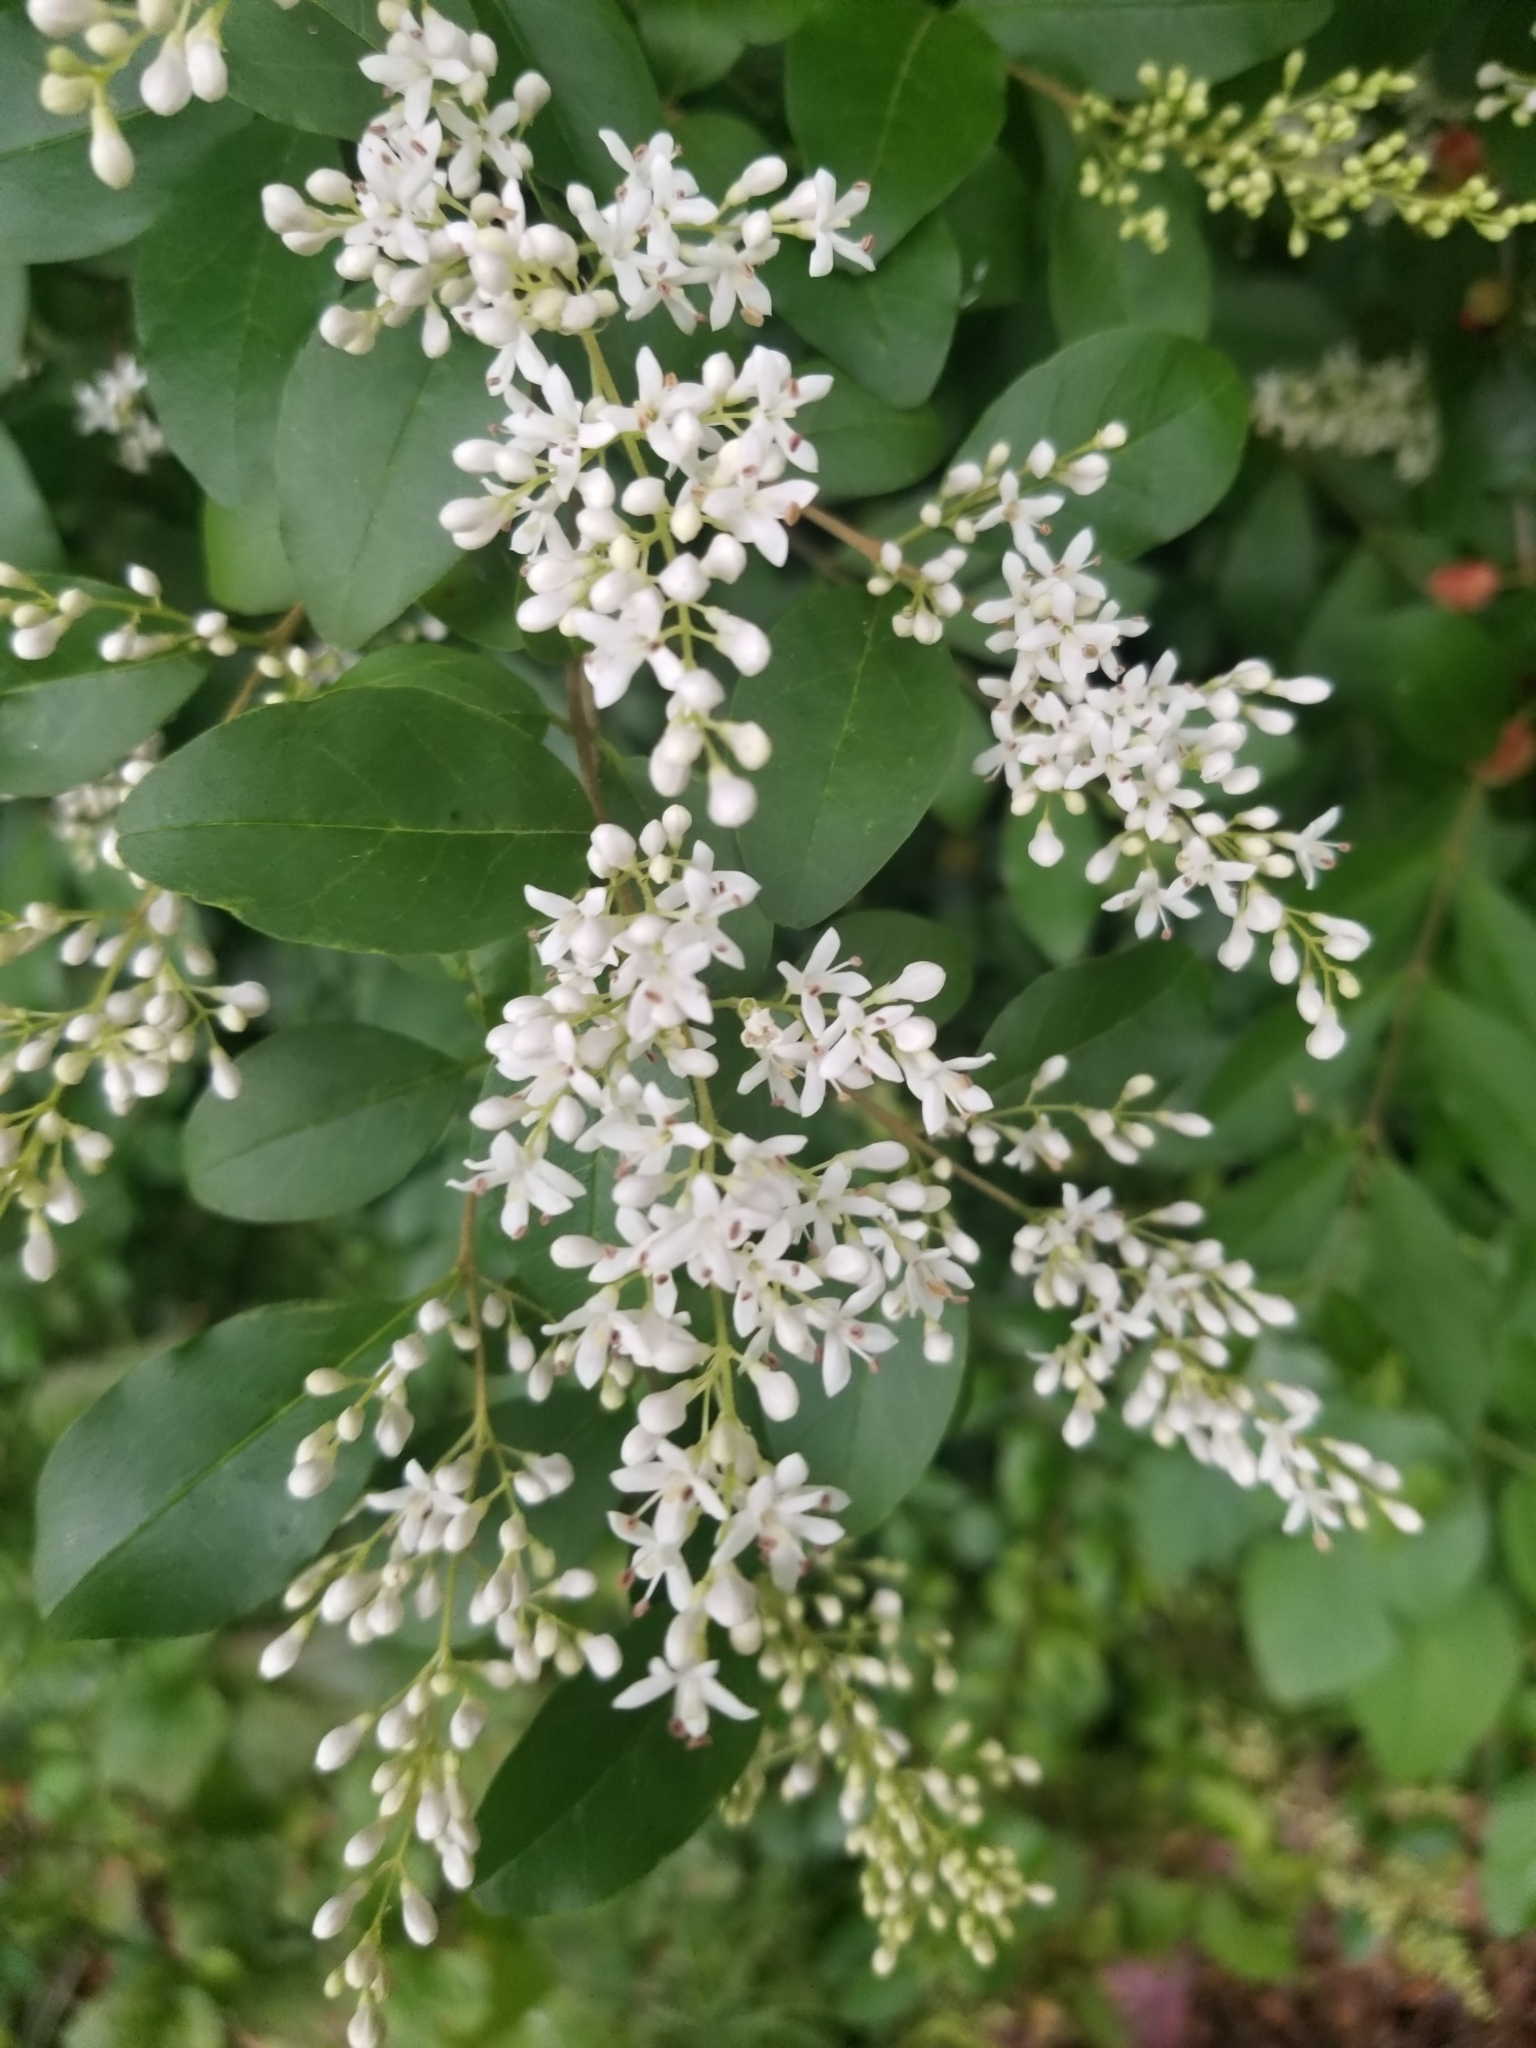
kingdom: Plantae
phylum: Tracheophyta
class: Magnoliopsida
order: Lamiales
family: Oleaceae
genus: Ligustrum
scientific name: Ligustrum sinense
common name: Chinese privet
